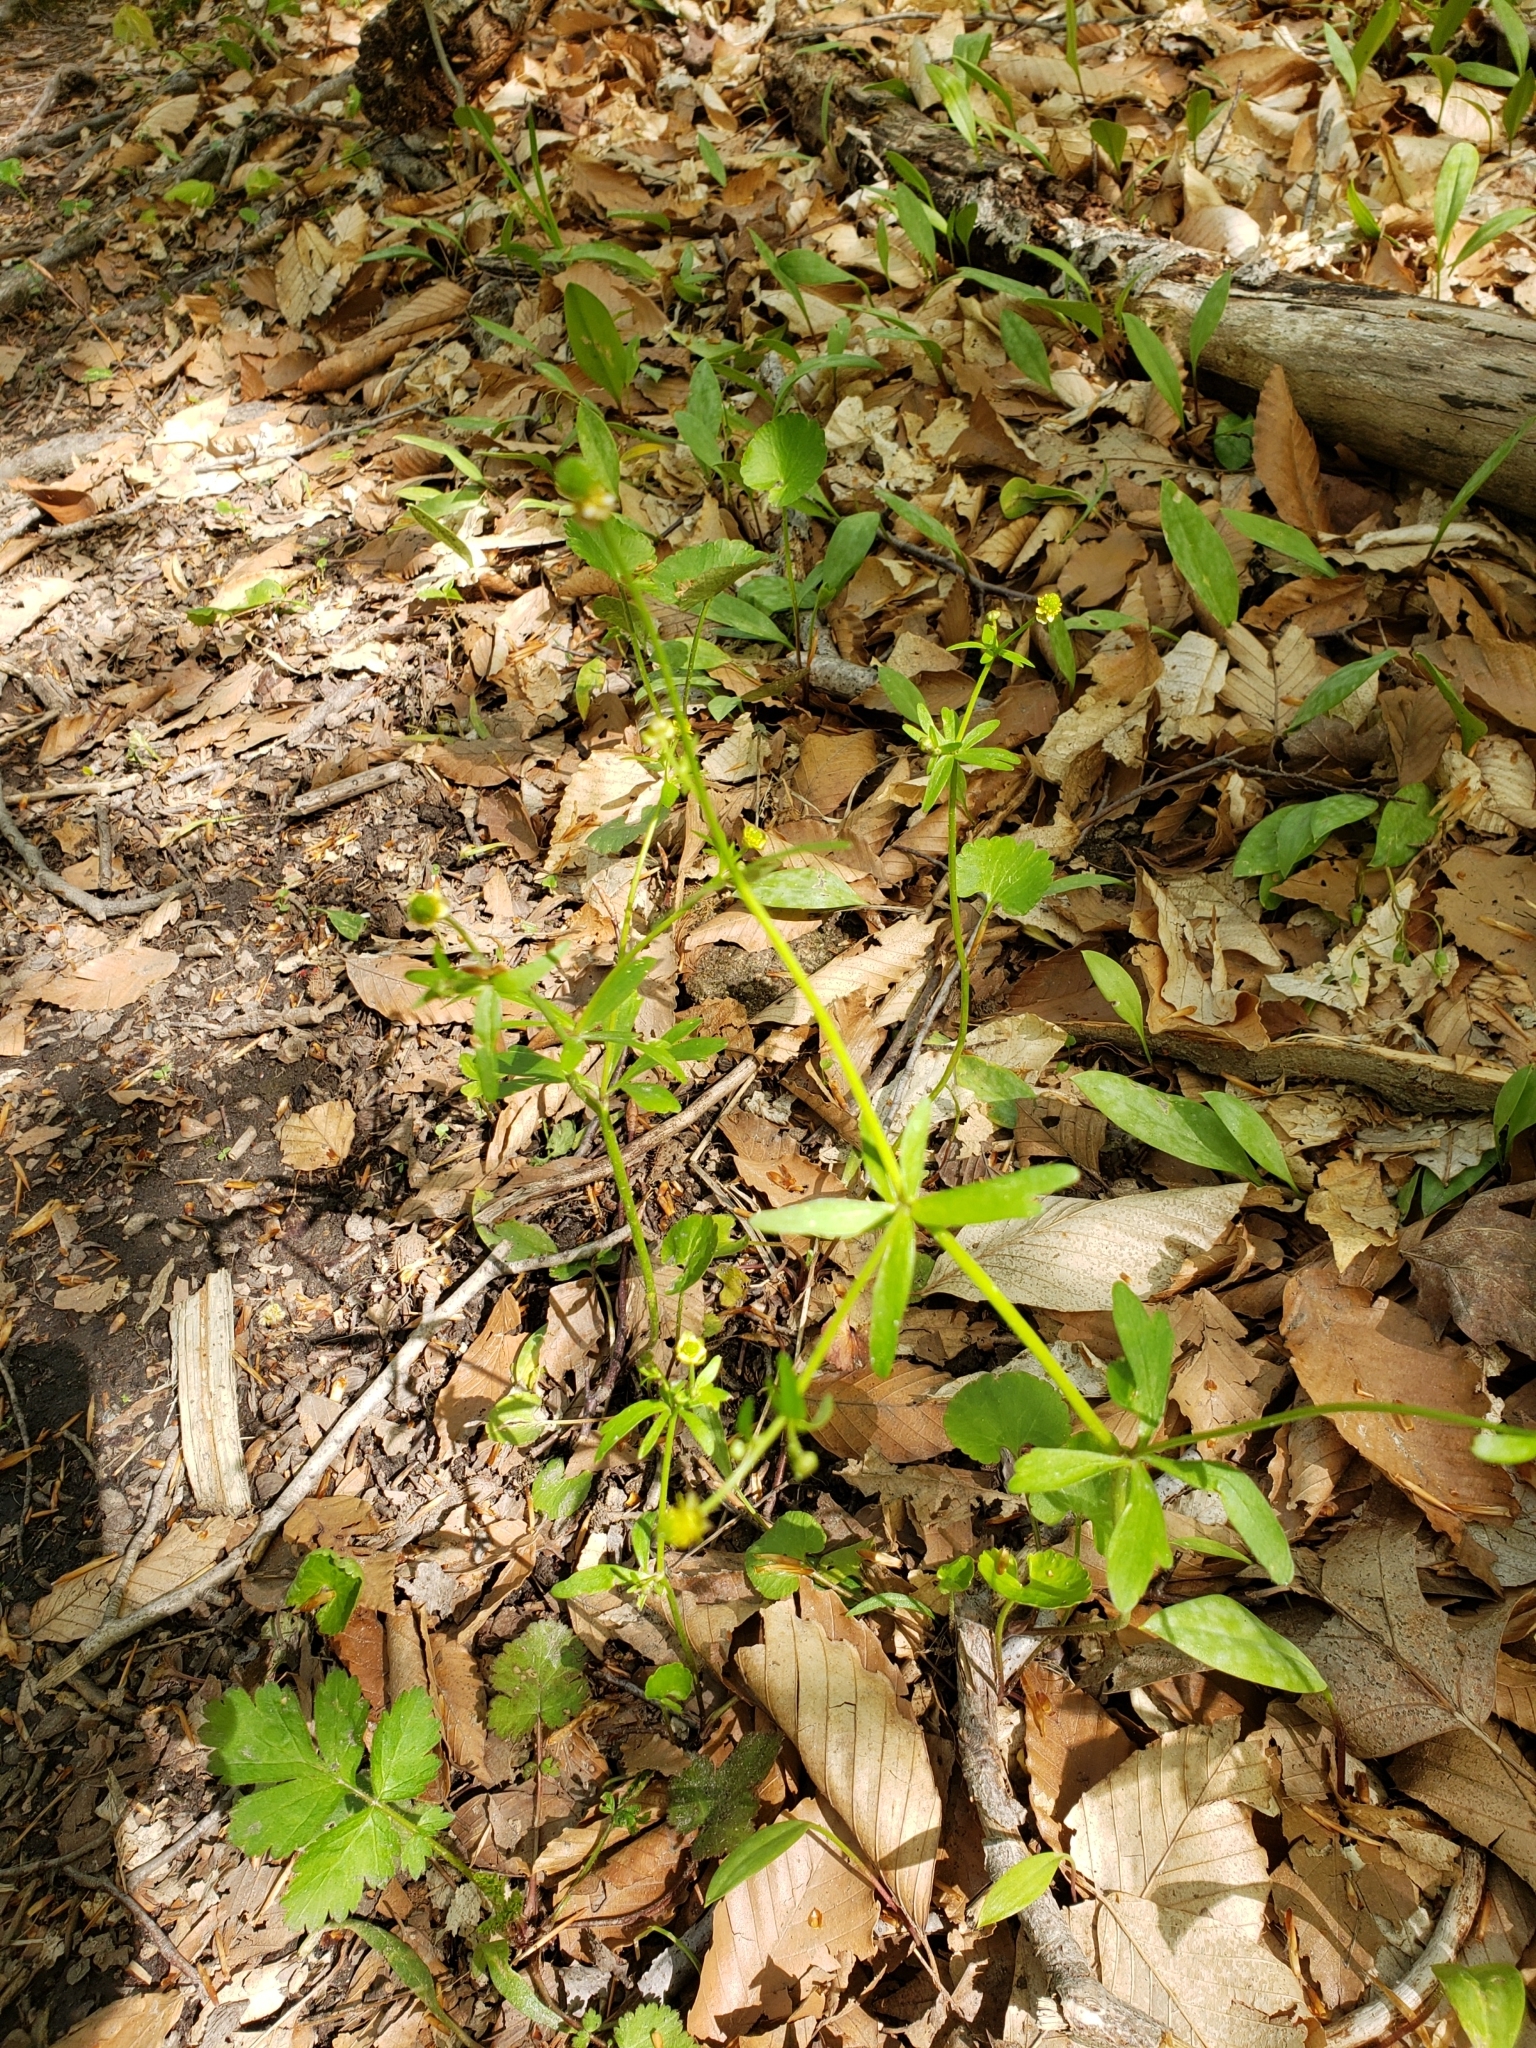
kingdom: Plantae
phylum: Tracheophyta
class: Magnoliopsida
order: Ranunculales
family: Ranunculaceae
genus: Ranunculus
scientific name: Ranunculus abortivus
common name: Early wood buttercup
